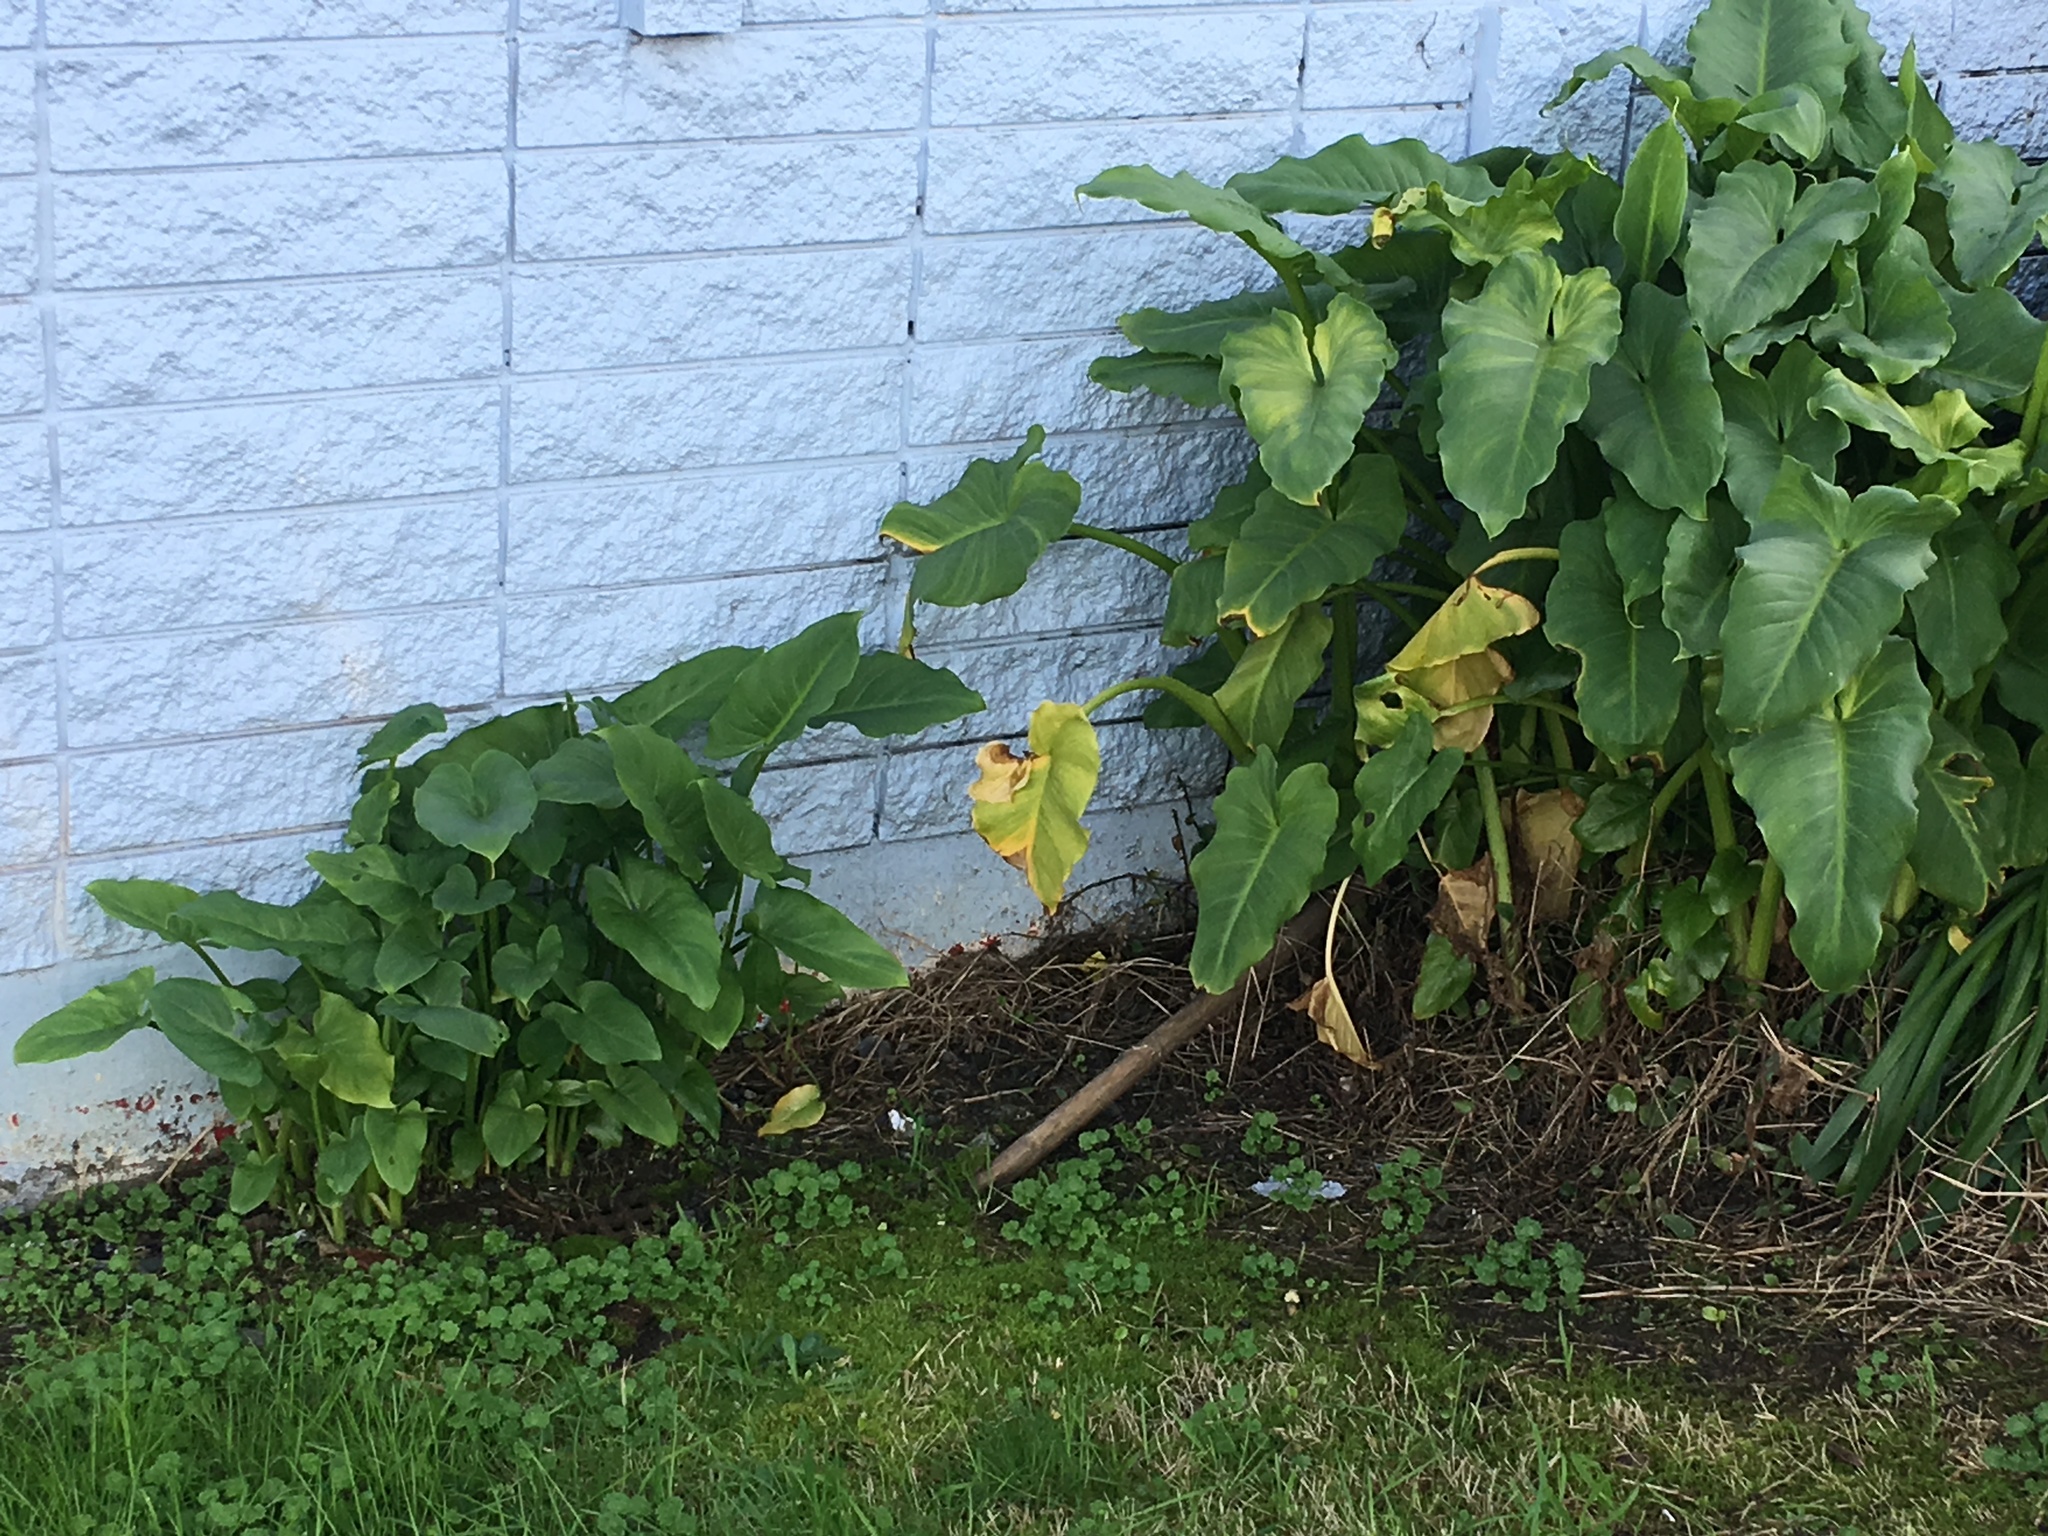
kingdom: Plantae
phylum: Tracheophyta
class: Liliopsida
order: Alismatales
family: Araceae
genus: Zantedeschia
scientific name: Zantedeschia aethiopica
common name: Altar-lily
